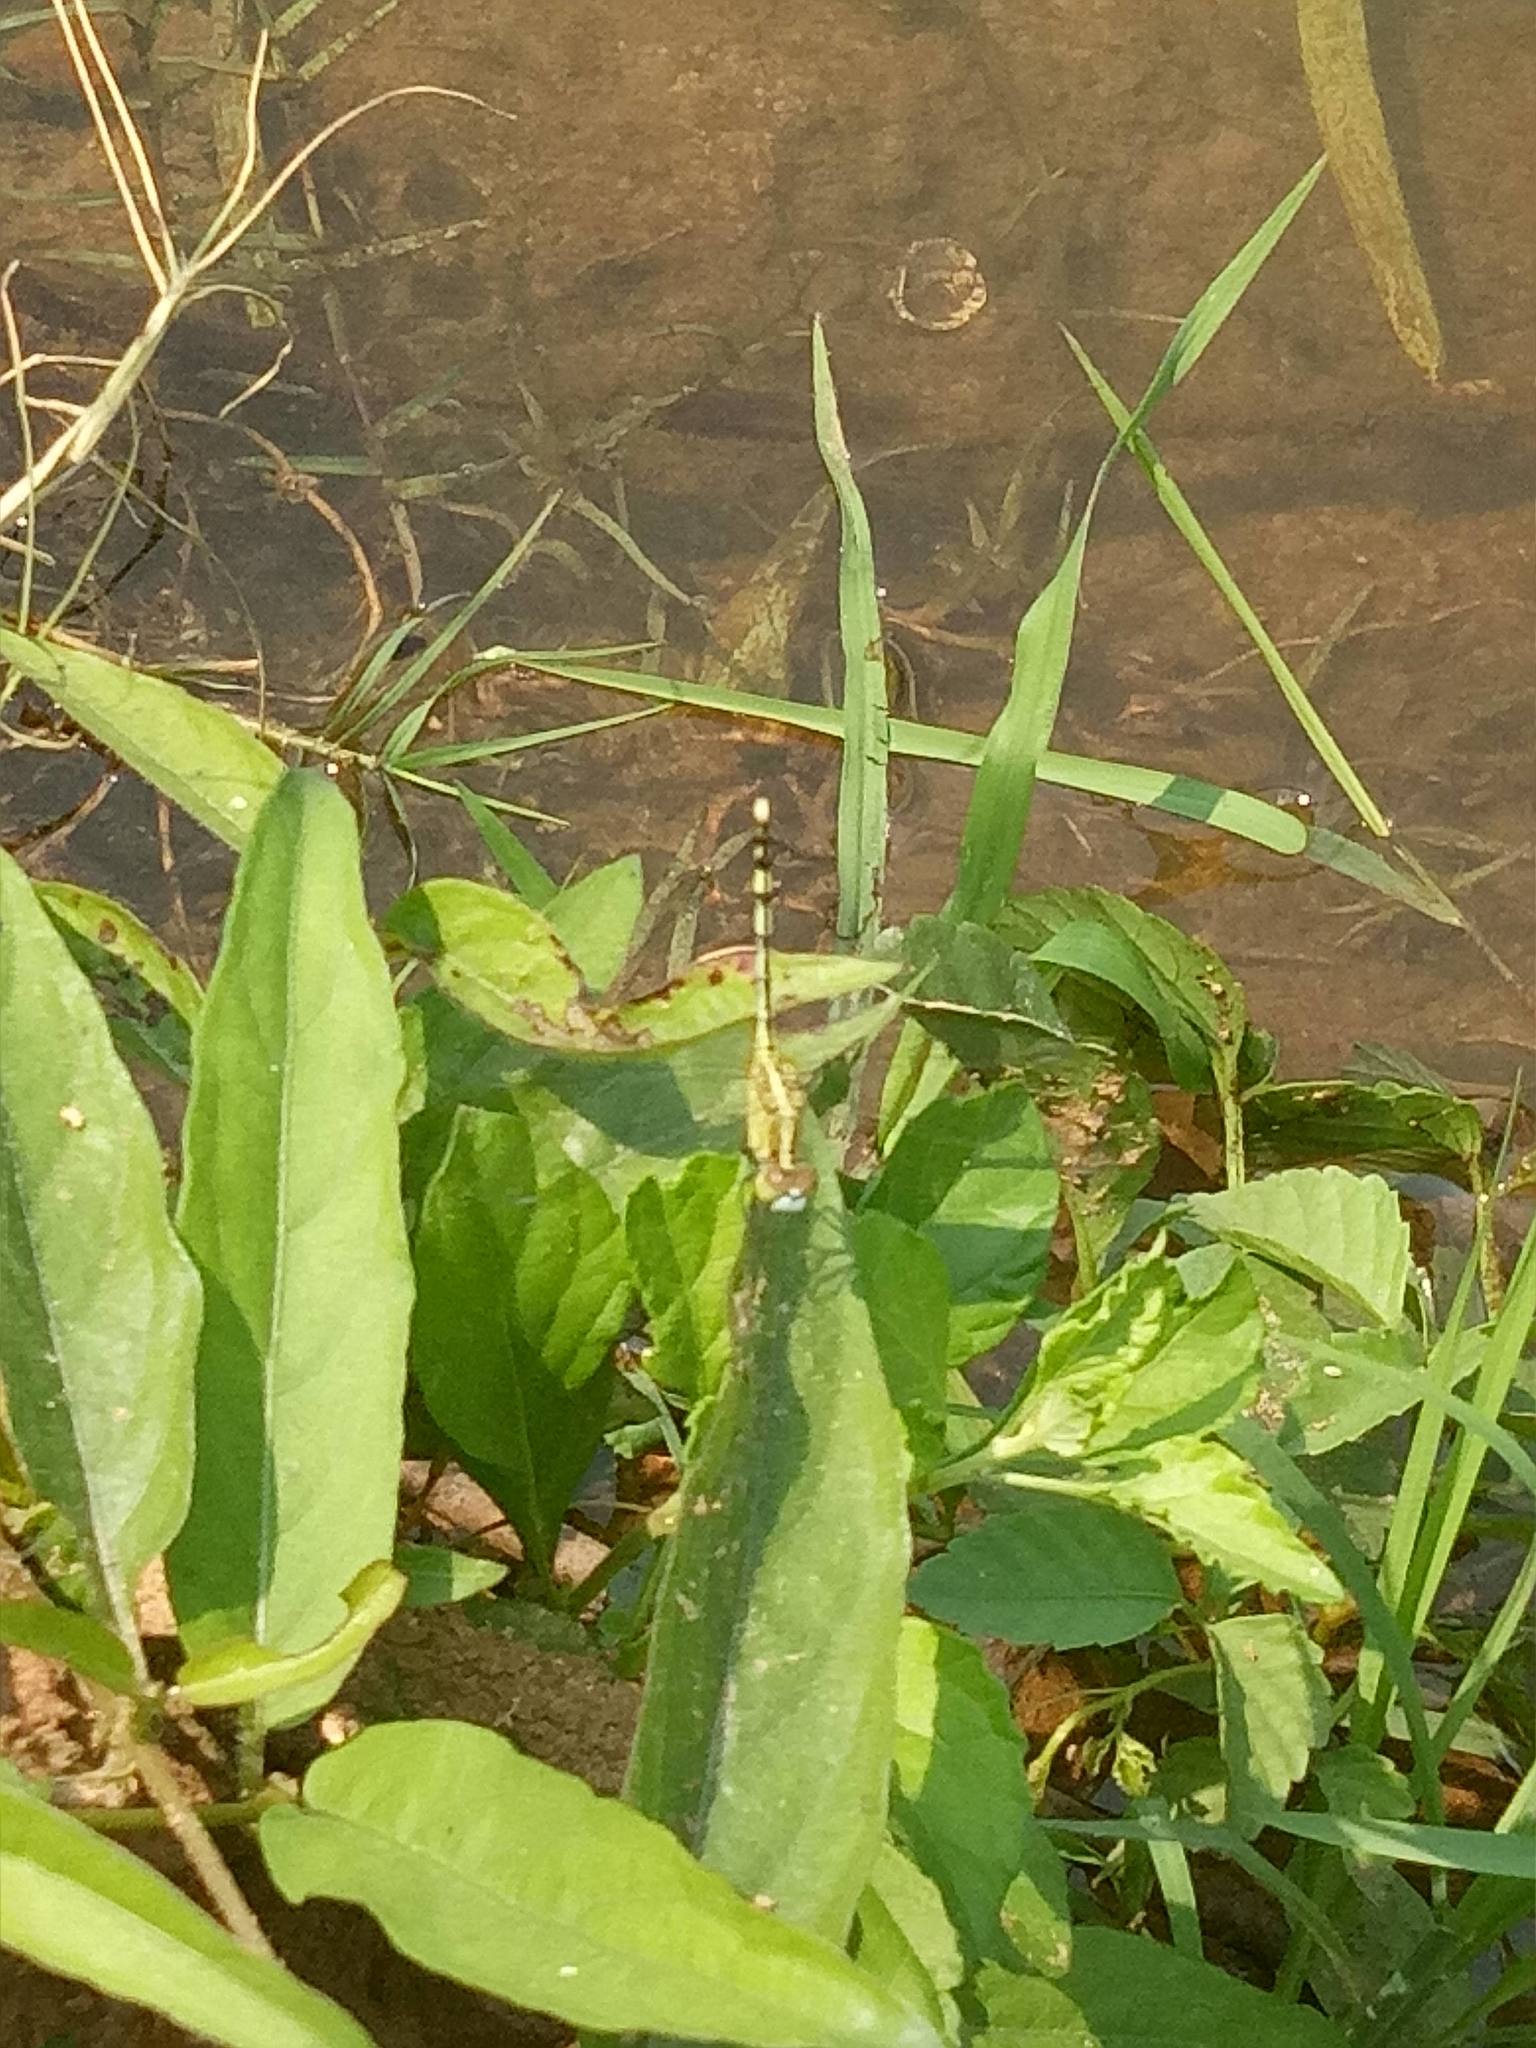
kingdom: Animalia
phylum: Arthropoda
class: Insecta
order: Odonata
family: Libellulidae
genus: Diplacodes
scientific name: Diplacodes trivialis
